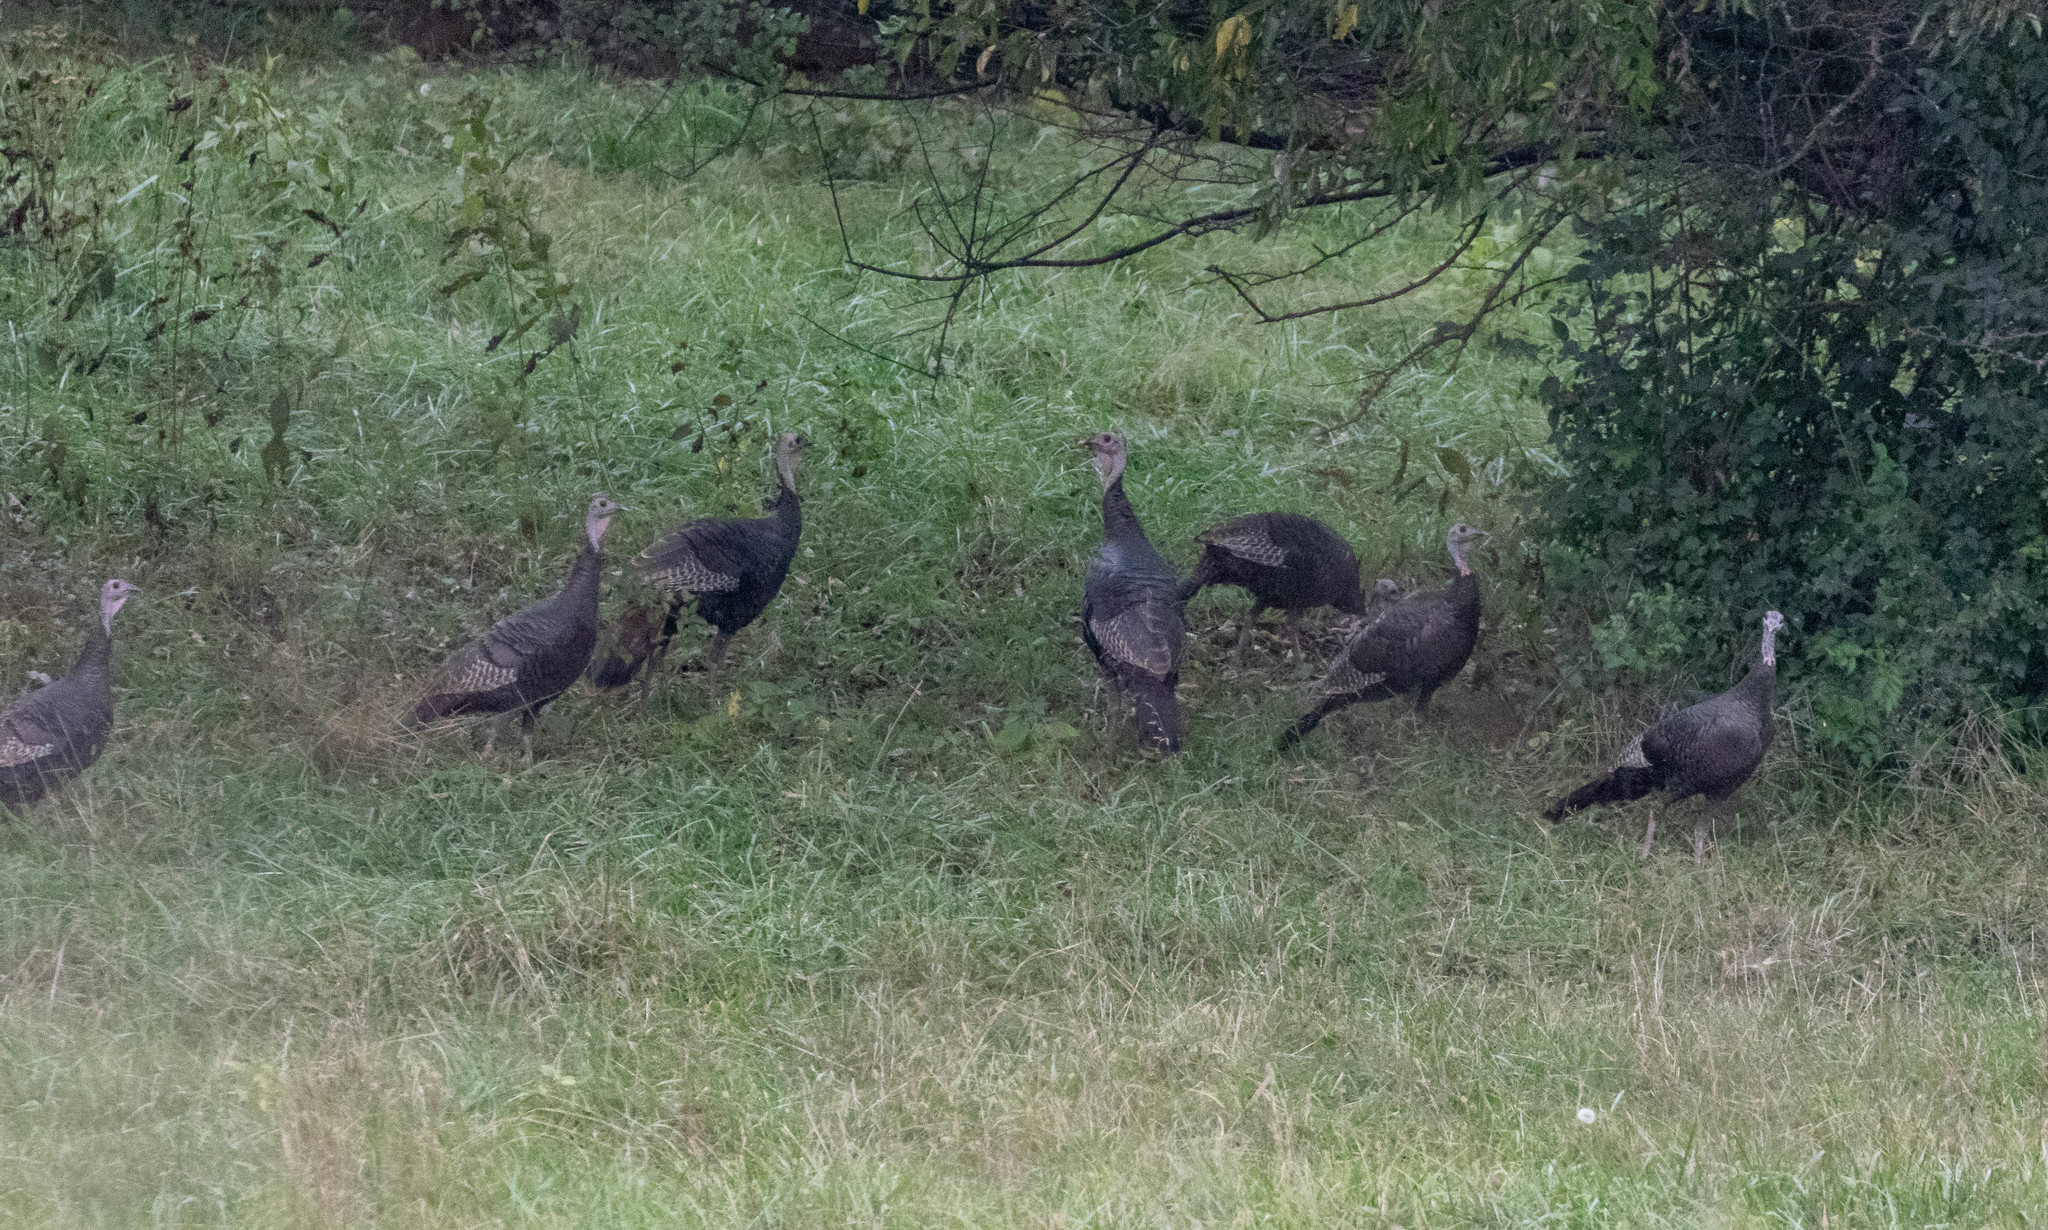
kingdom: Animalia
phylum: Chordata
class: Aves
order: Galliformes
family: Phasianidae
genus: Meleagris
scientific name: Meleagris gallopavo
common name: Wild turkey
